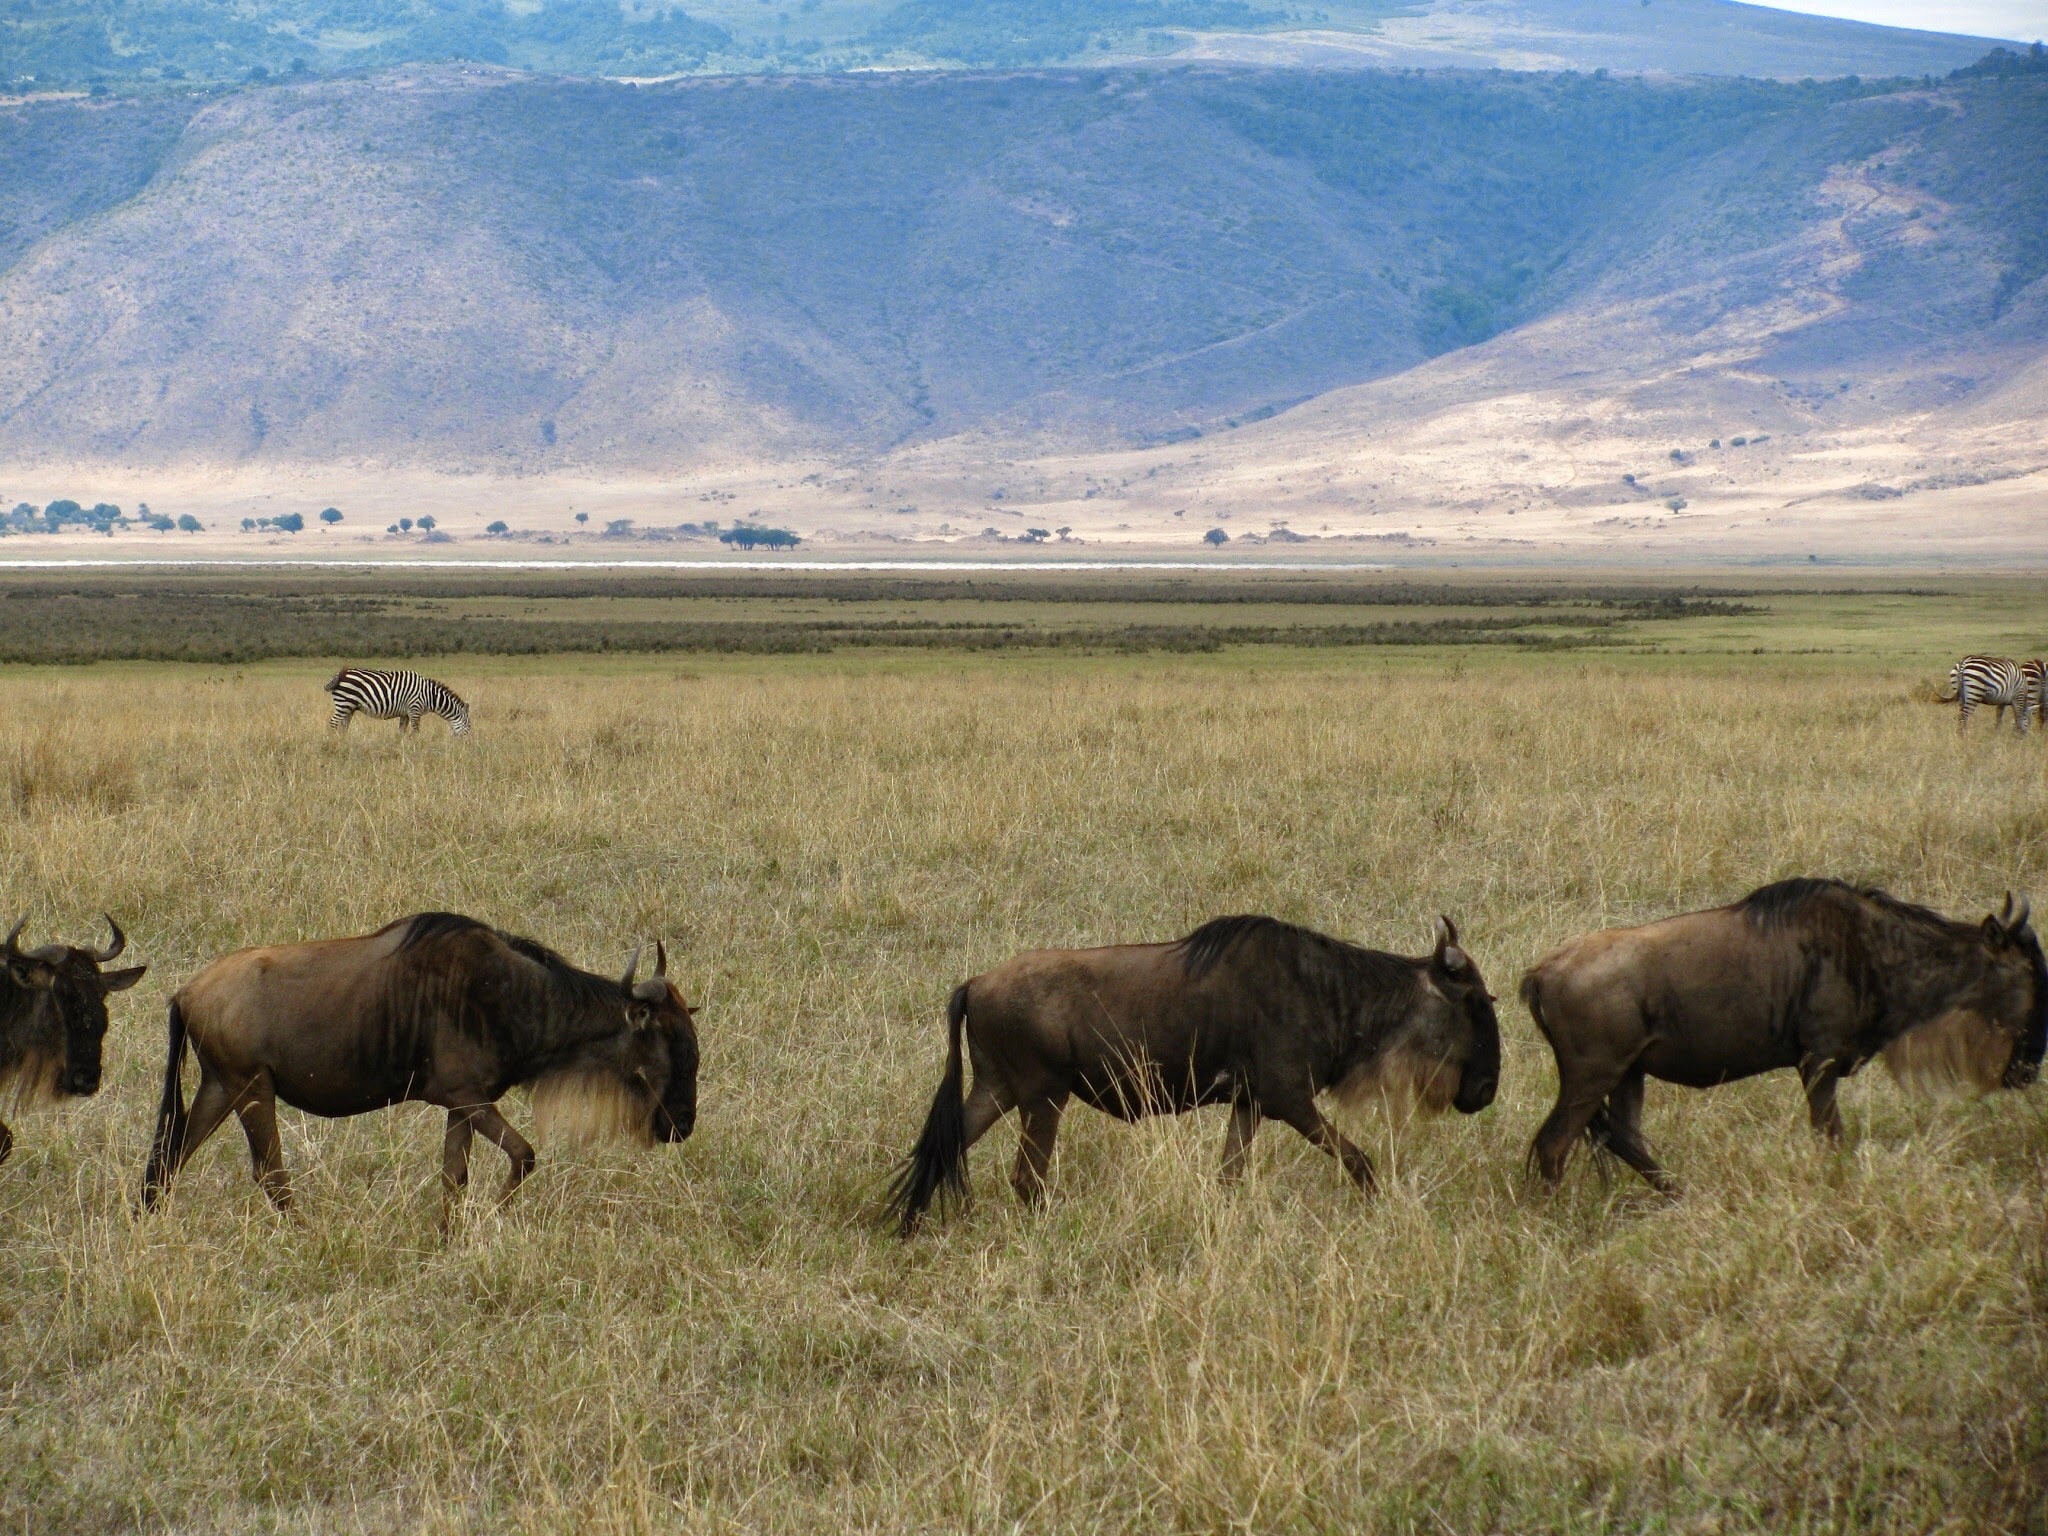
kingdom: Animalia
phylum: Chordata
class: Mammalia
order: Artiodactyla
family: Bovidae
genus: Connochaetes
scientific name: Connochaetes taurinus
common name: Blue wildebeest
